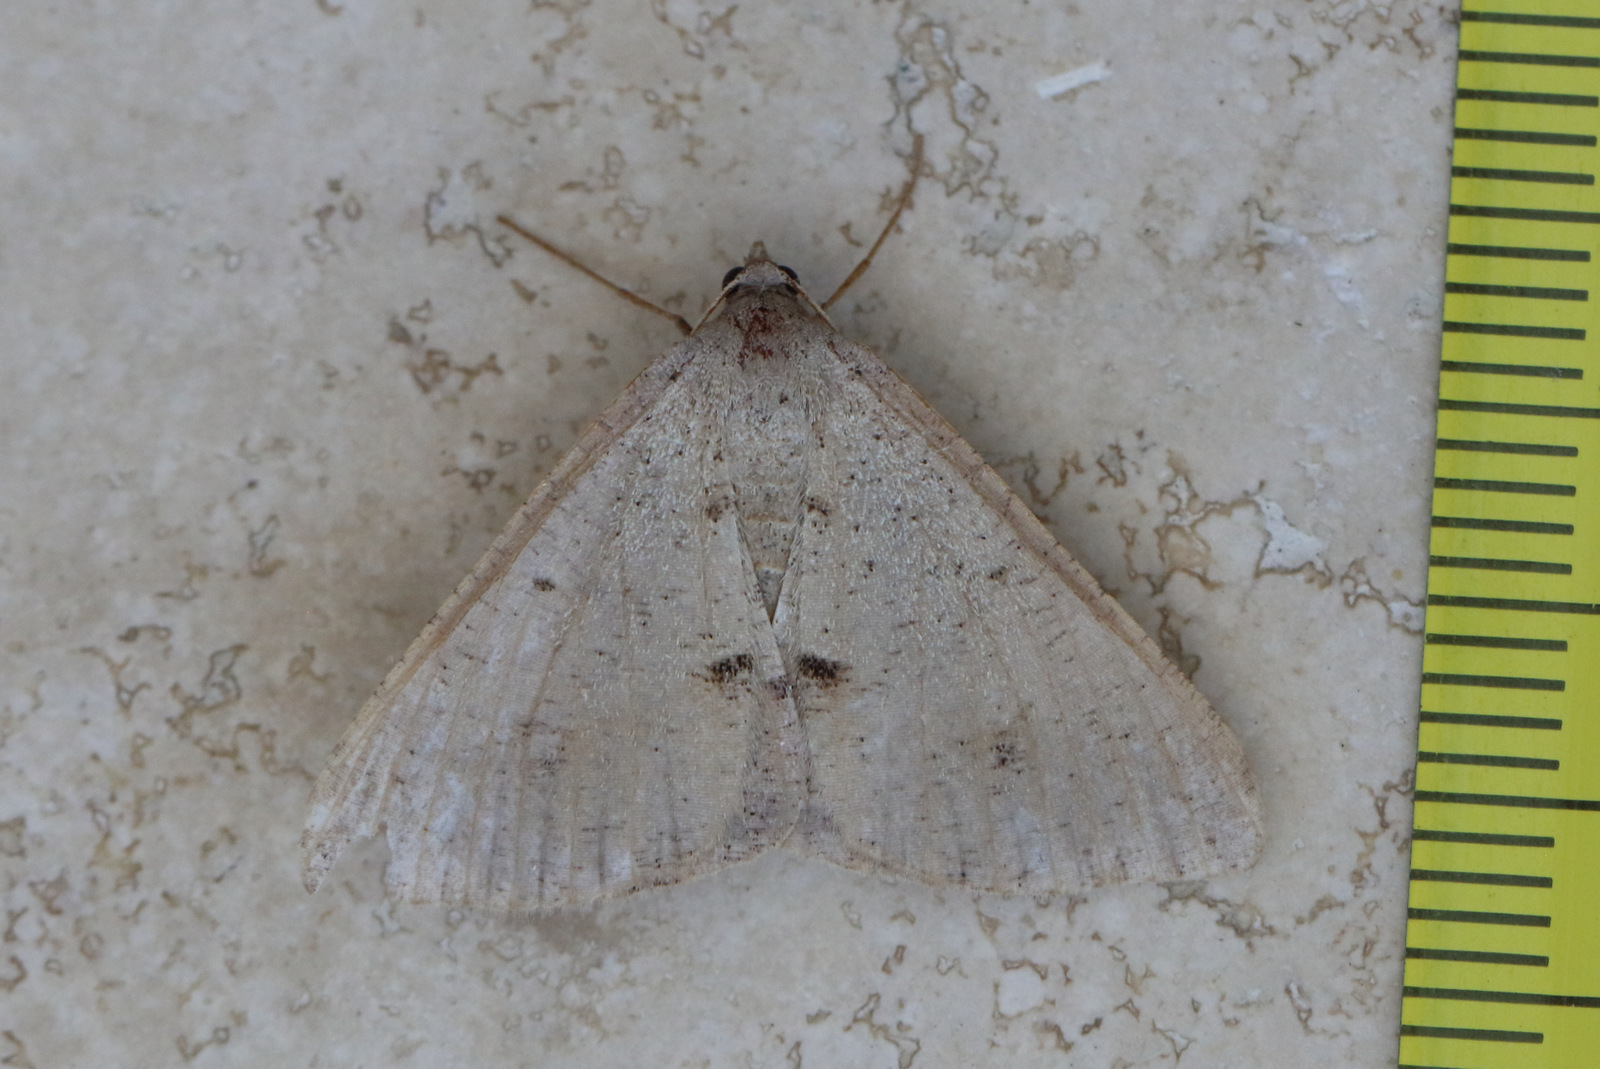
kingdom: Animalia
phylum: Arthropoda
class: Insecta
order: Lepidoptera
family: Geometridae
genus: Isturgia
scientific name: Isturgia
